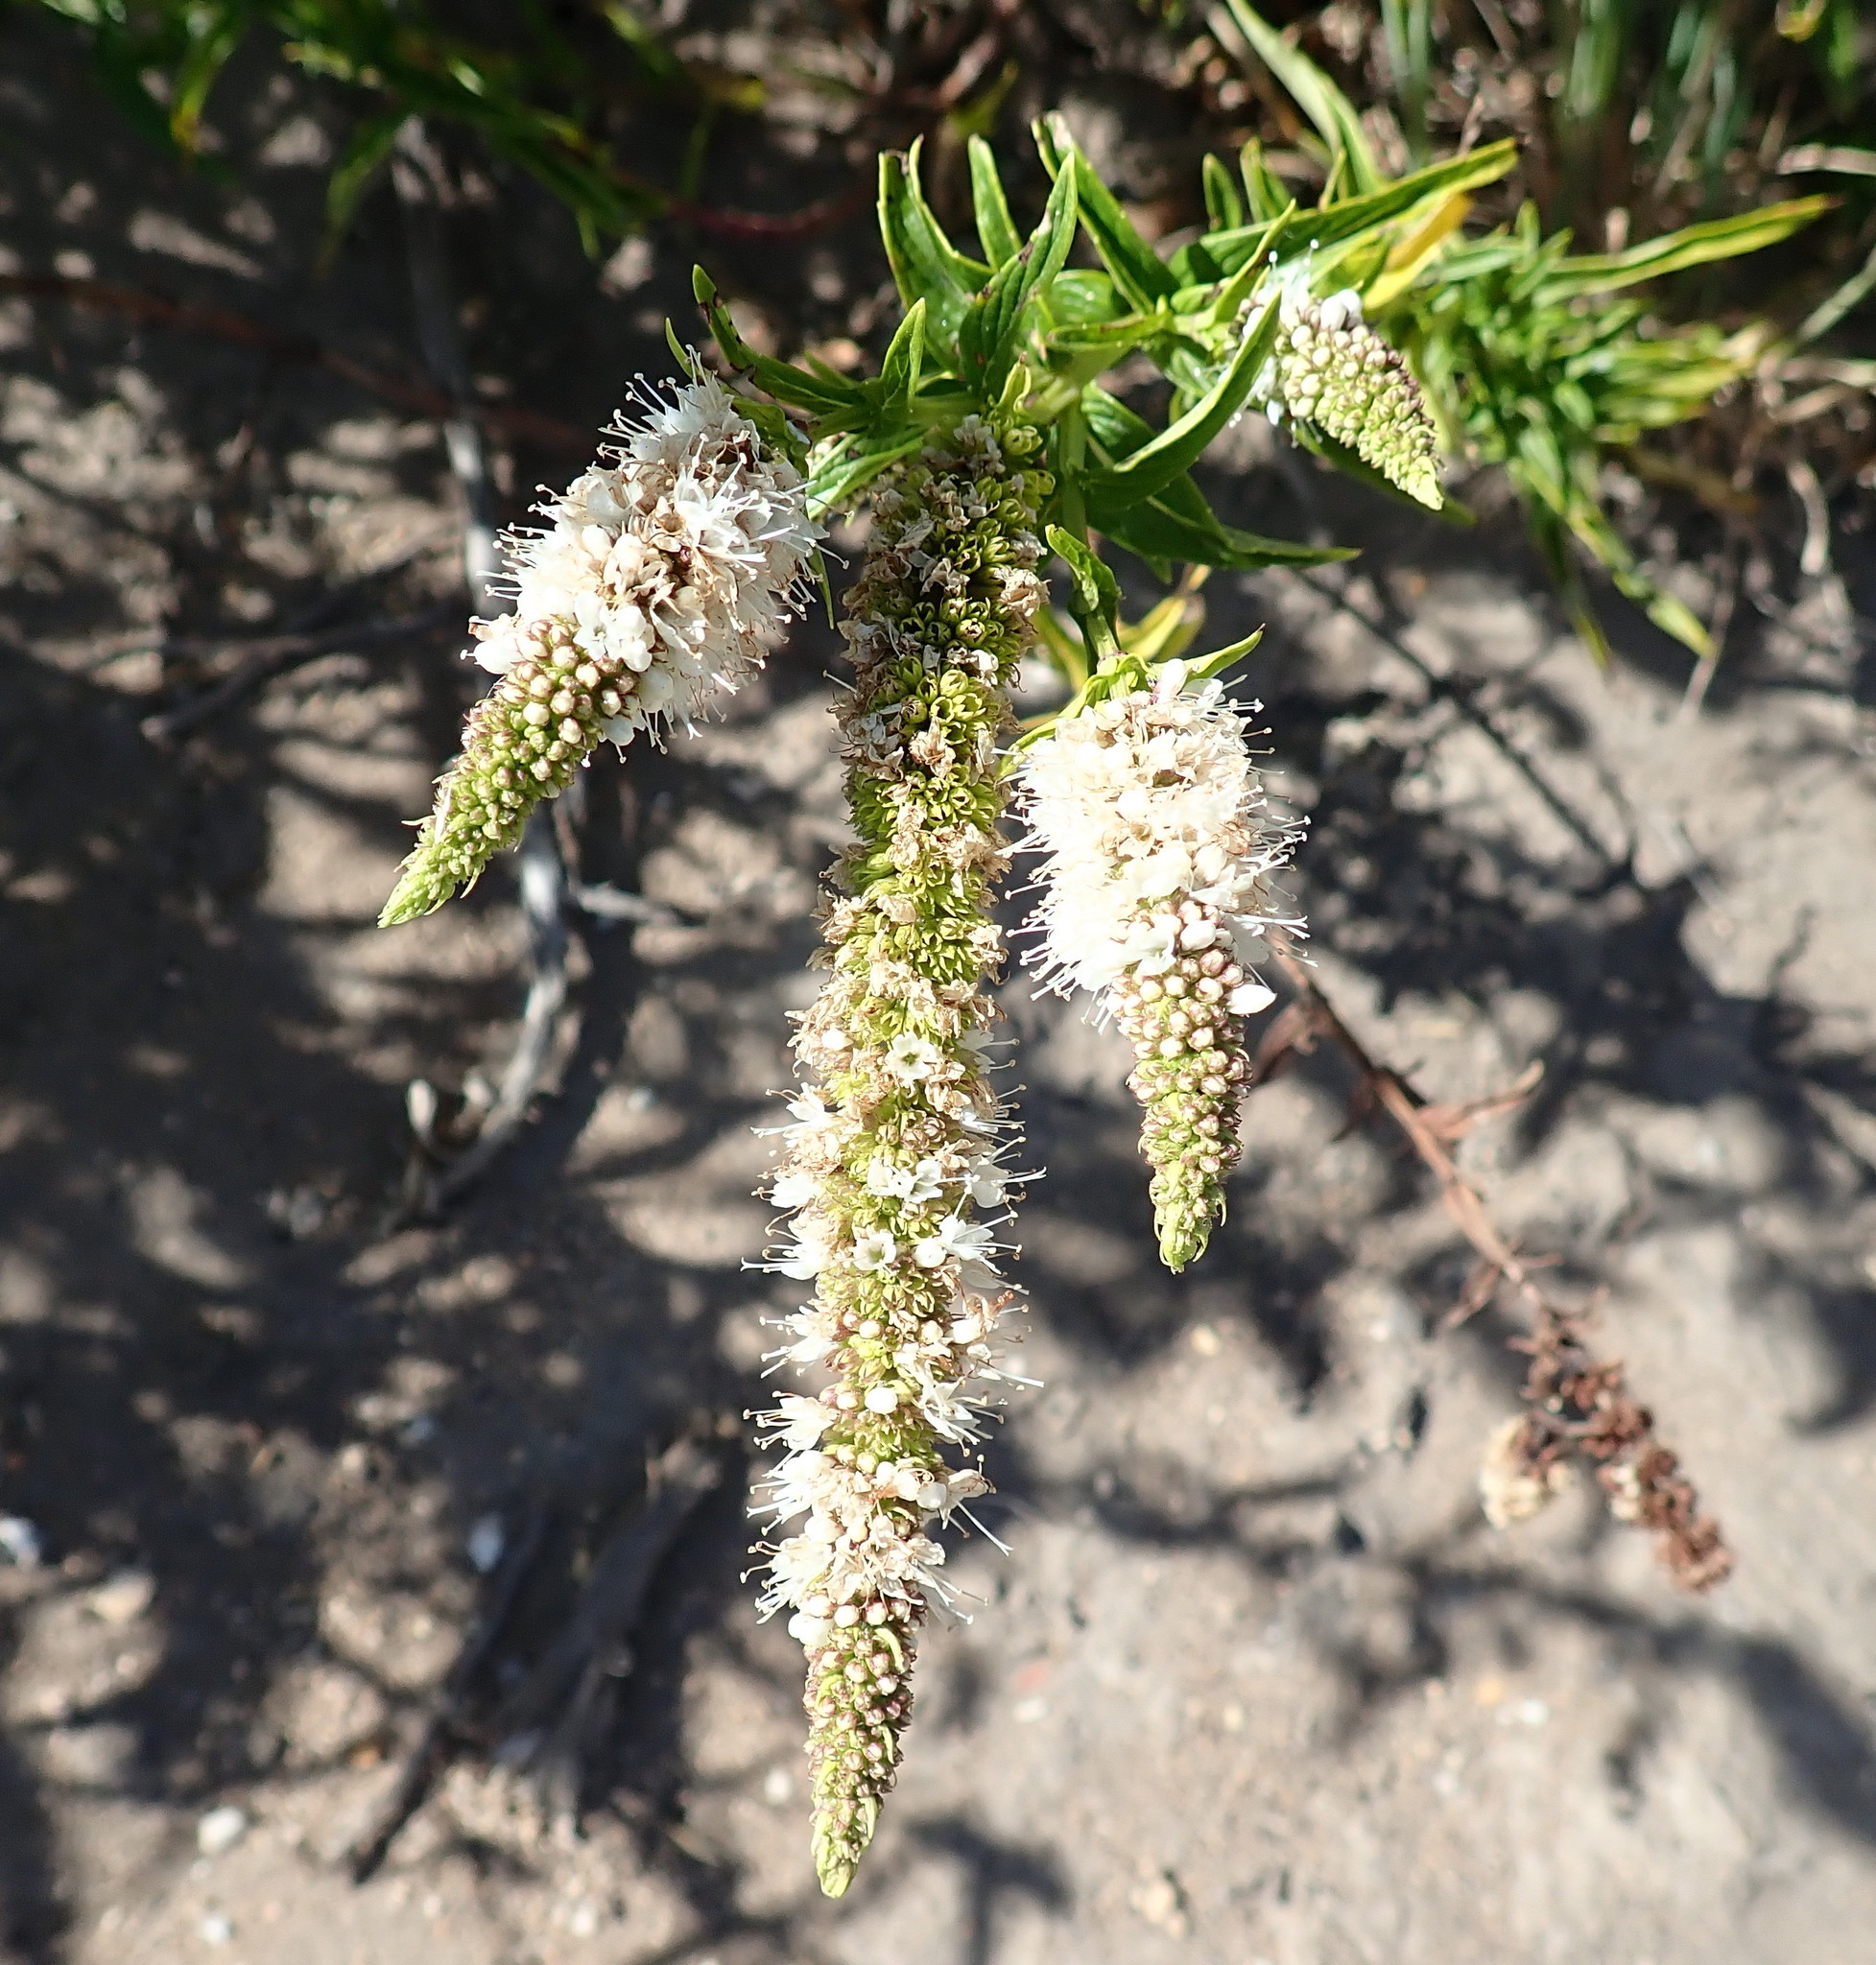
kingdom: Plantae
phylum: Tracheophyta
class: Magnoliopsida
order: Lamiales
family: Lamiaceae
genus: Mentha
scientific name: Mentha longifolia
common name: Horse mint
